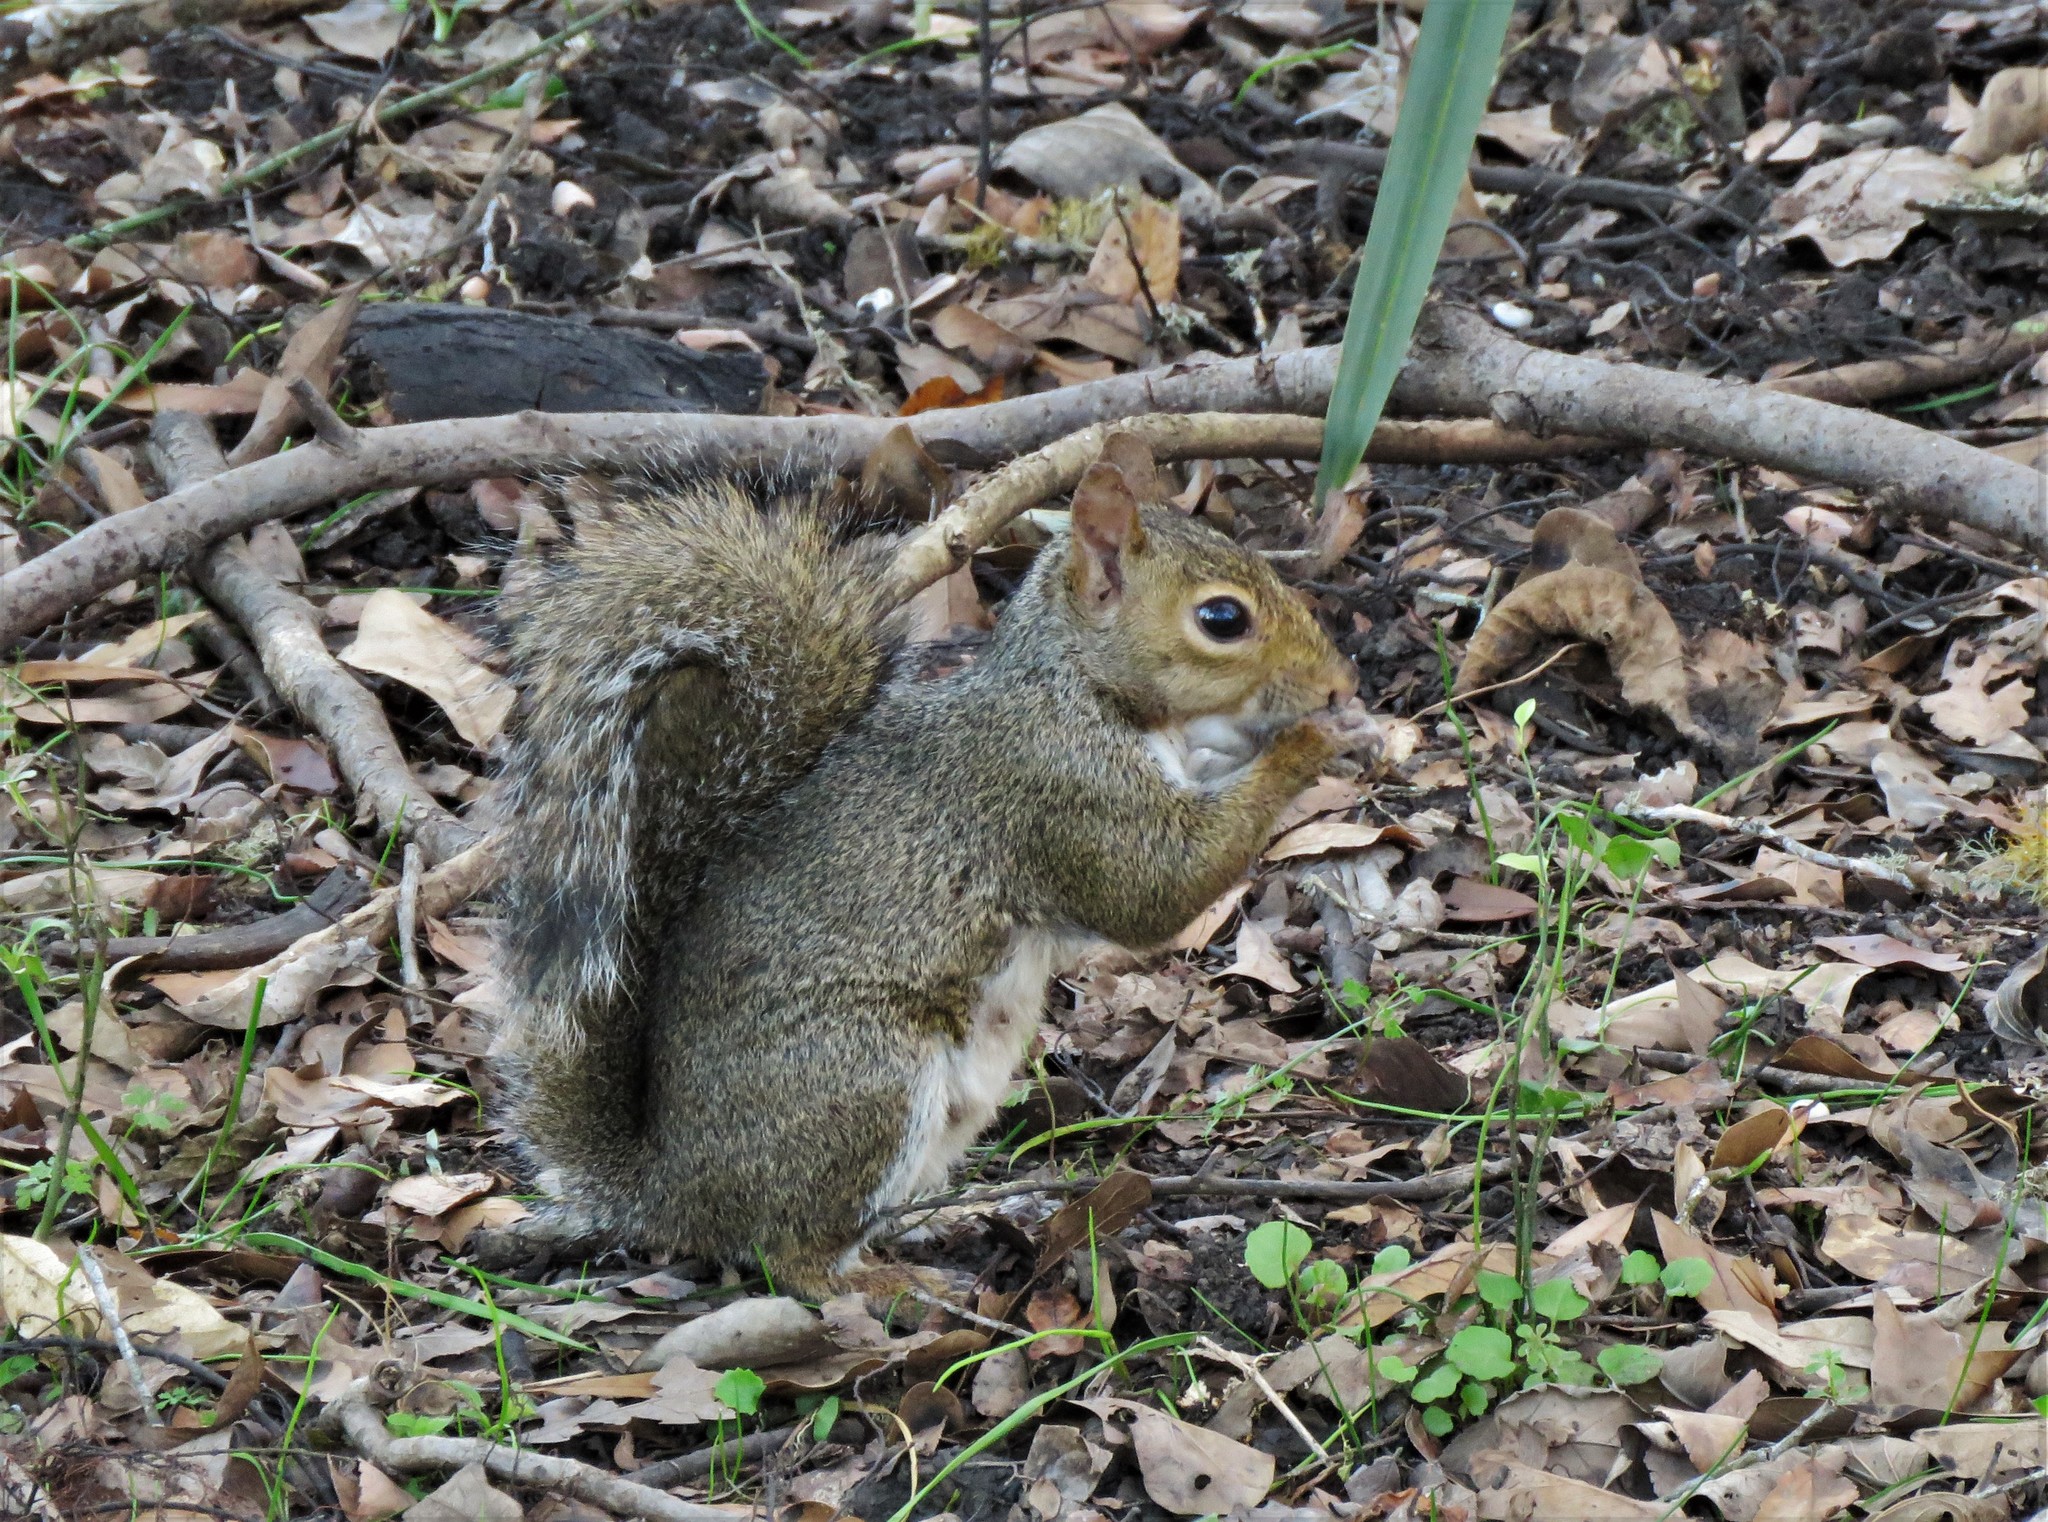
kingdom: Animalia
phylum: Chordata
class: Mammalia
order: Rodentia
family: Sciuridae
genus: Sciurus
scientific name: Sciurus carolinensis
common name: Eastern gray squirrel
